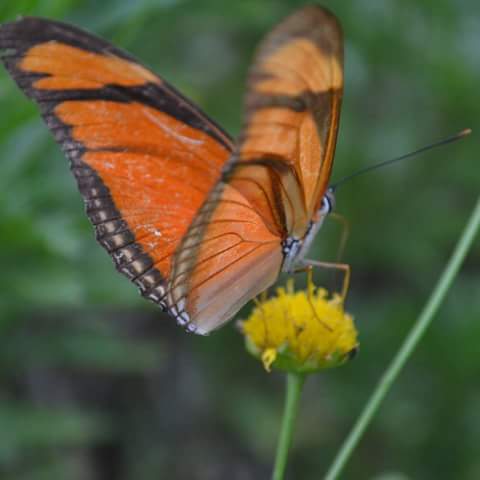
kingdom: Animalia
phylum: Arthropoda
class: Insecta
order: Lepidoptera
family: Nymphalidae
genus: Dryas
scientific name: Dryas iulia
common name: Flambeau
